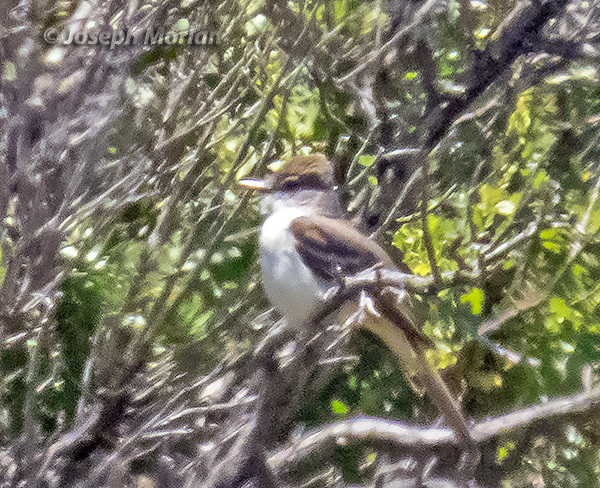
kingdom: Animalia
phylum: Chordata
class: Aves
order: Passeriformes
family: Tyrannidae
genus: Myiarchus
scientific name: Myiarchus cinerascens
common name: Ash-throated flycatcher
